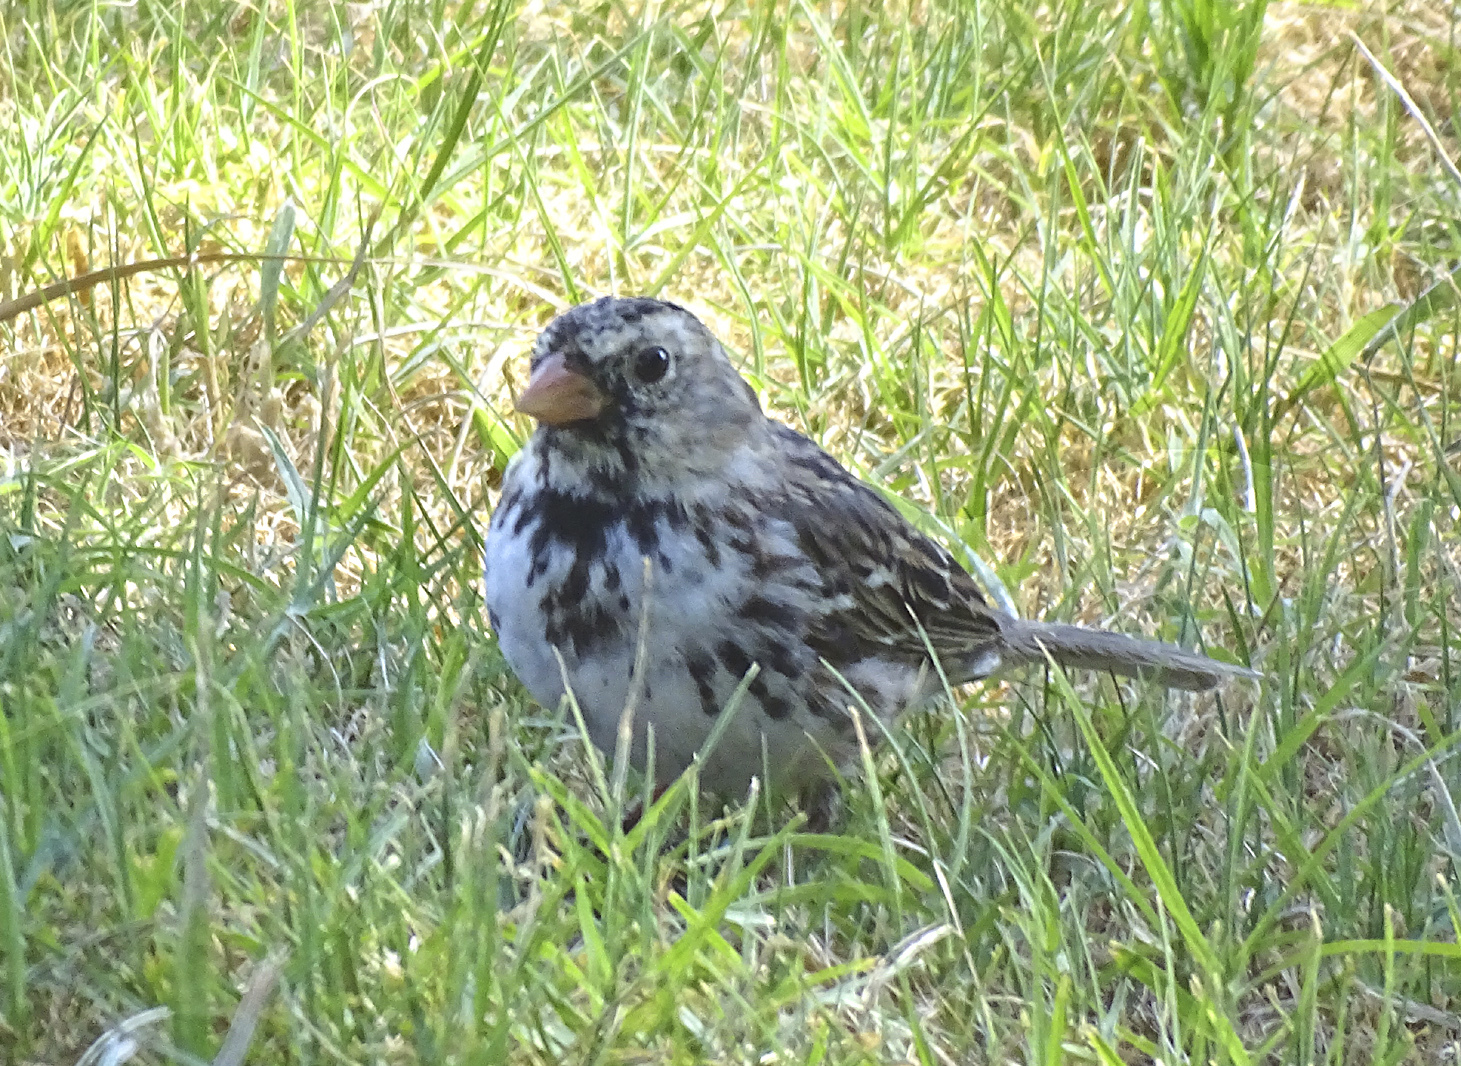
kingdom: Animalia
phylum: Chordata
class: Aves
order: Passeriformes
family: Passerellidae
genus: Zonotrichia
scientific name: Zonotrichia querula
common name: Harris's sparrow
